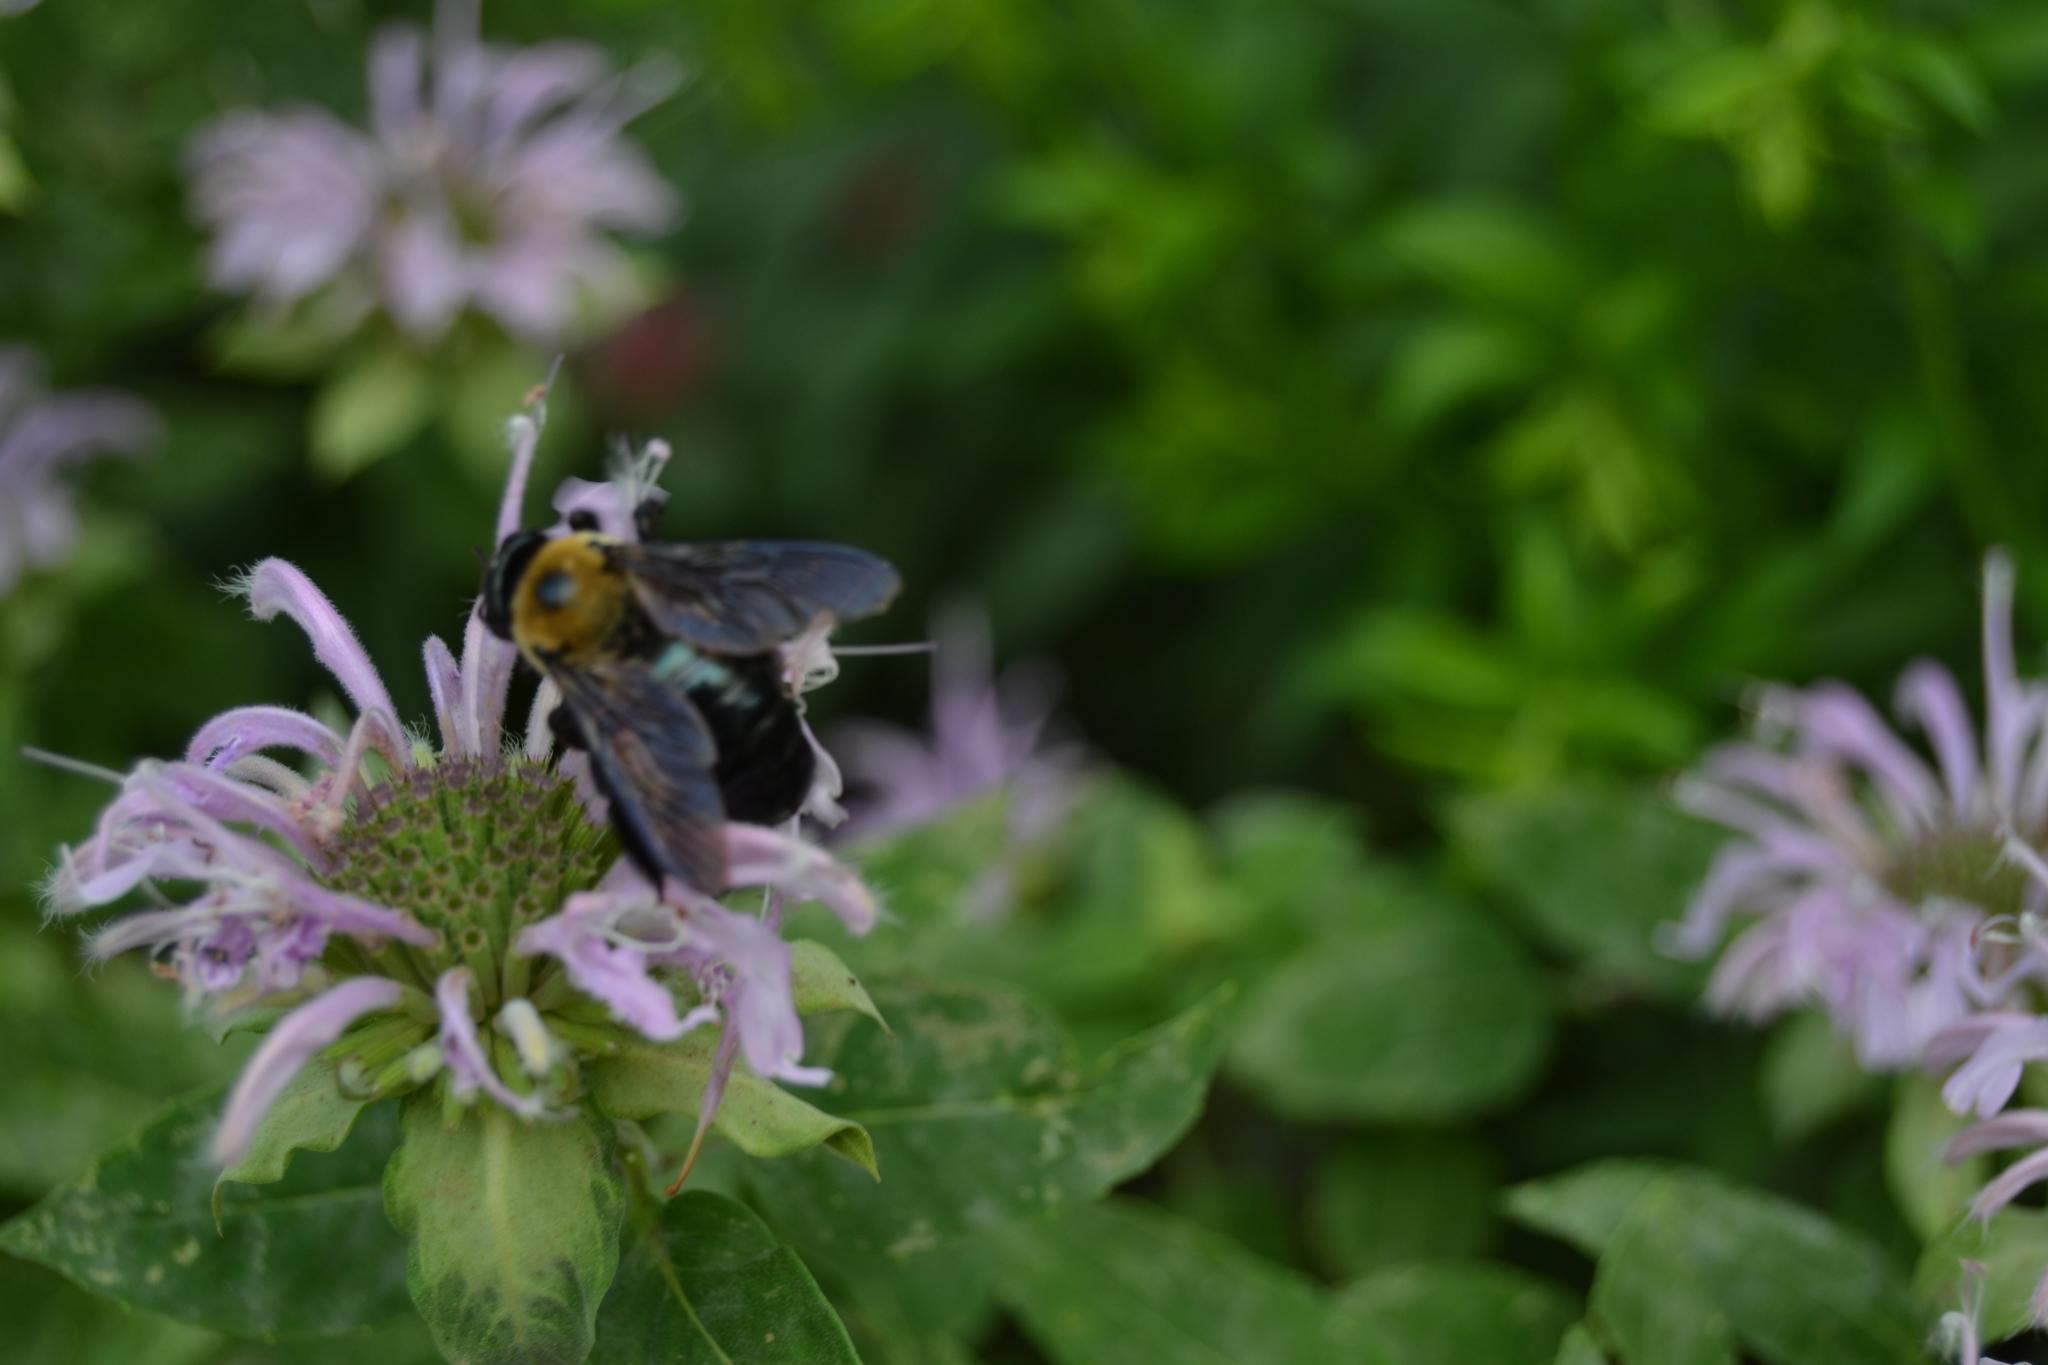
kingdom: Animalia
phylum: Arthropoda
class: Insecta
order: Hymenoptera
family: Apidae
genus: Xylocopa
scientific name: Xylocopa virginica
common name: Carpenter bee
